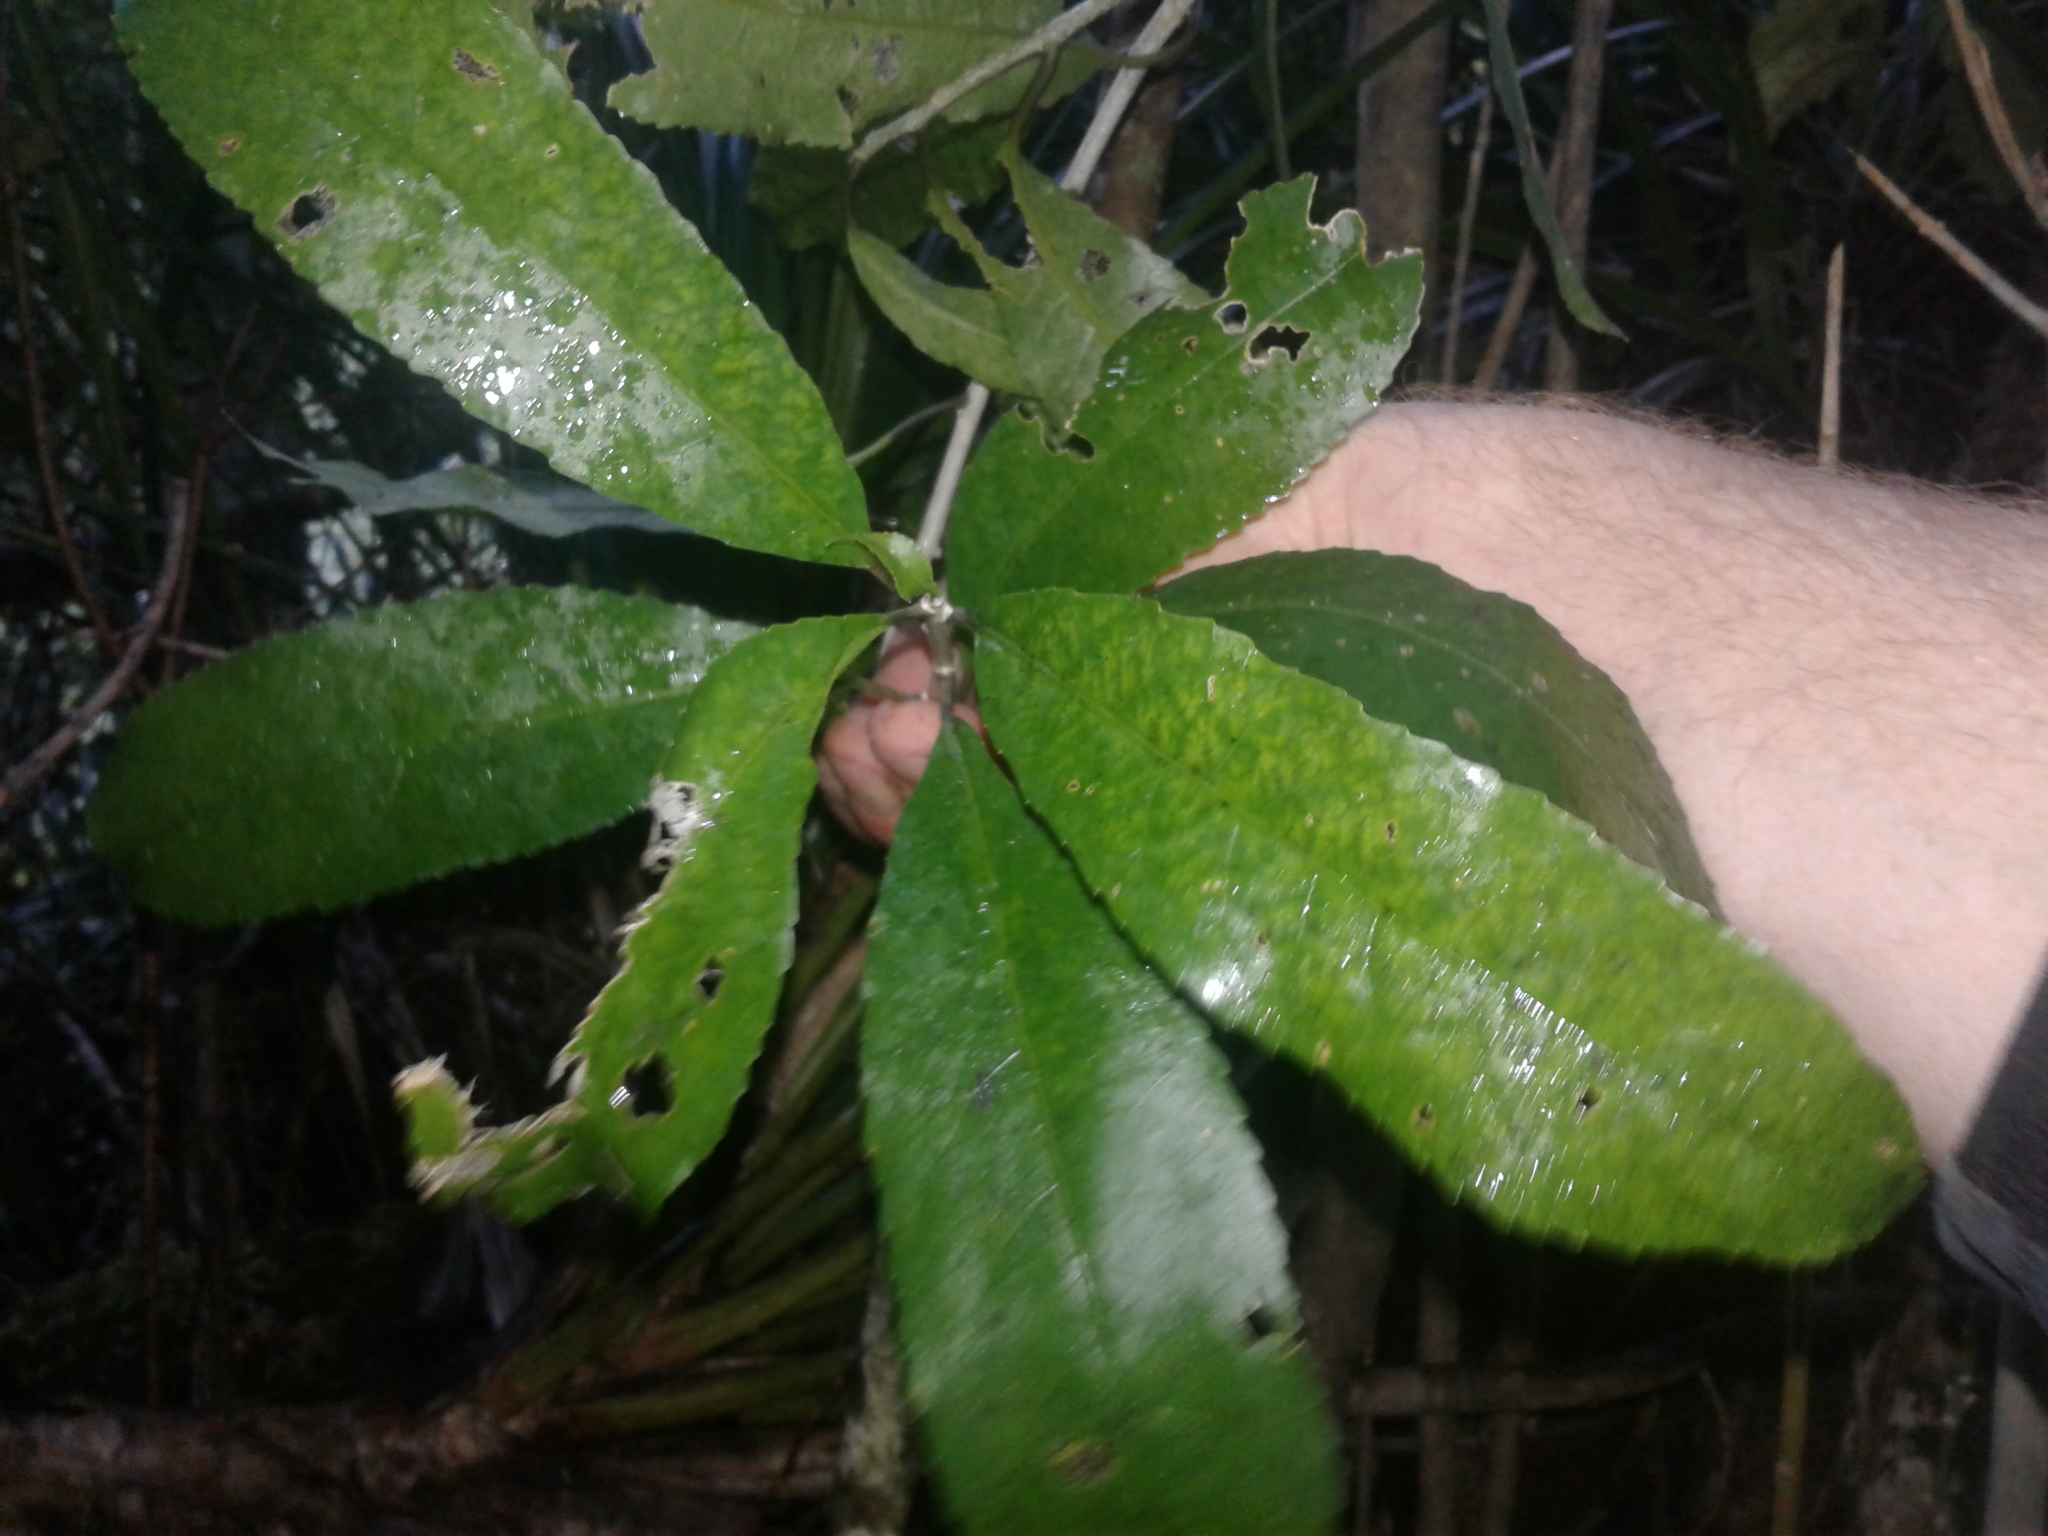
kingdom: Plantae
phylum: Tracheophyta
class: Magnoliopsida
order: Malpighiales
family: Violaceae
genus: Melicytus
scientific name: Melicytus ramiflorus
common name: Mahoe
